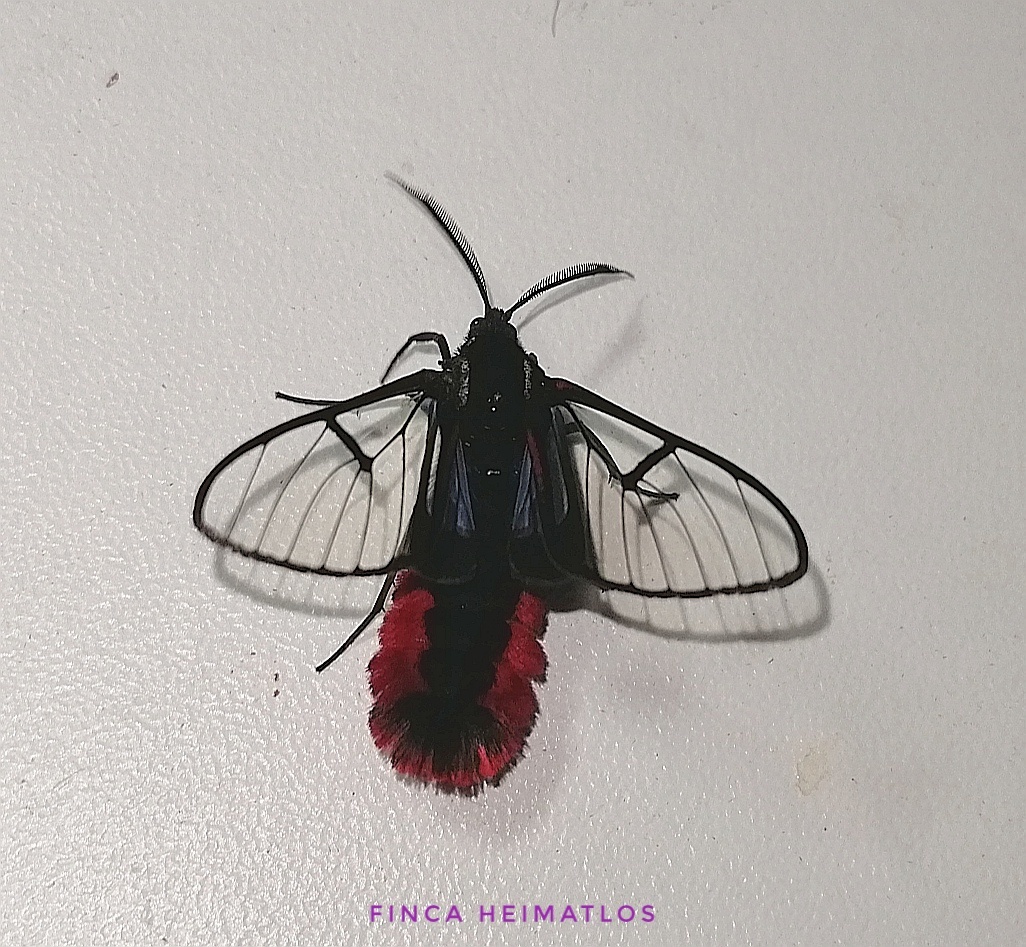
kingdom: Animalia
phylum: Arthropoda
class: Insecta
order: Lepidoptera
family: Erebidae
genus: Dinia
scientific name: Dinia eagrus
